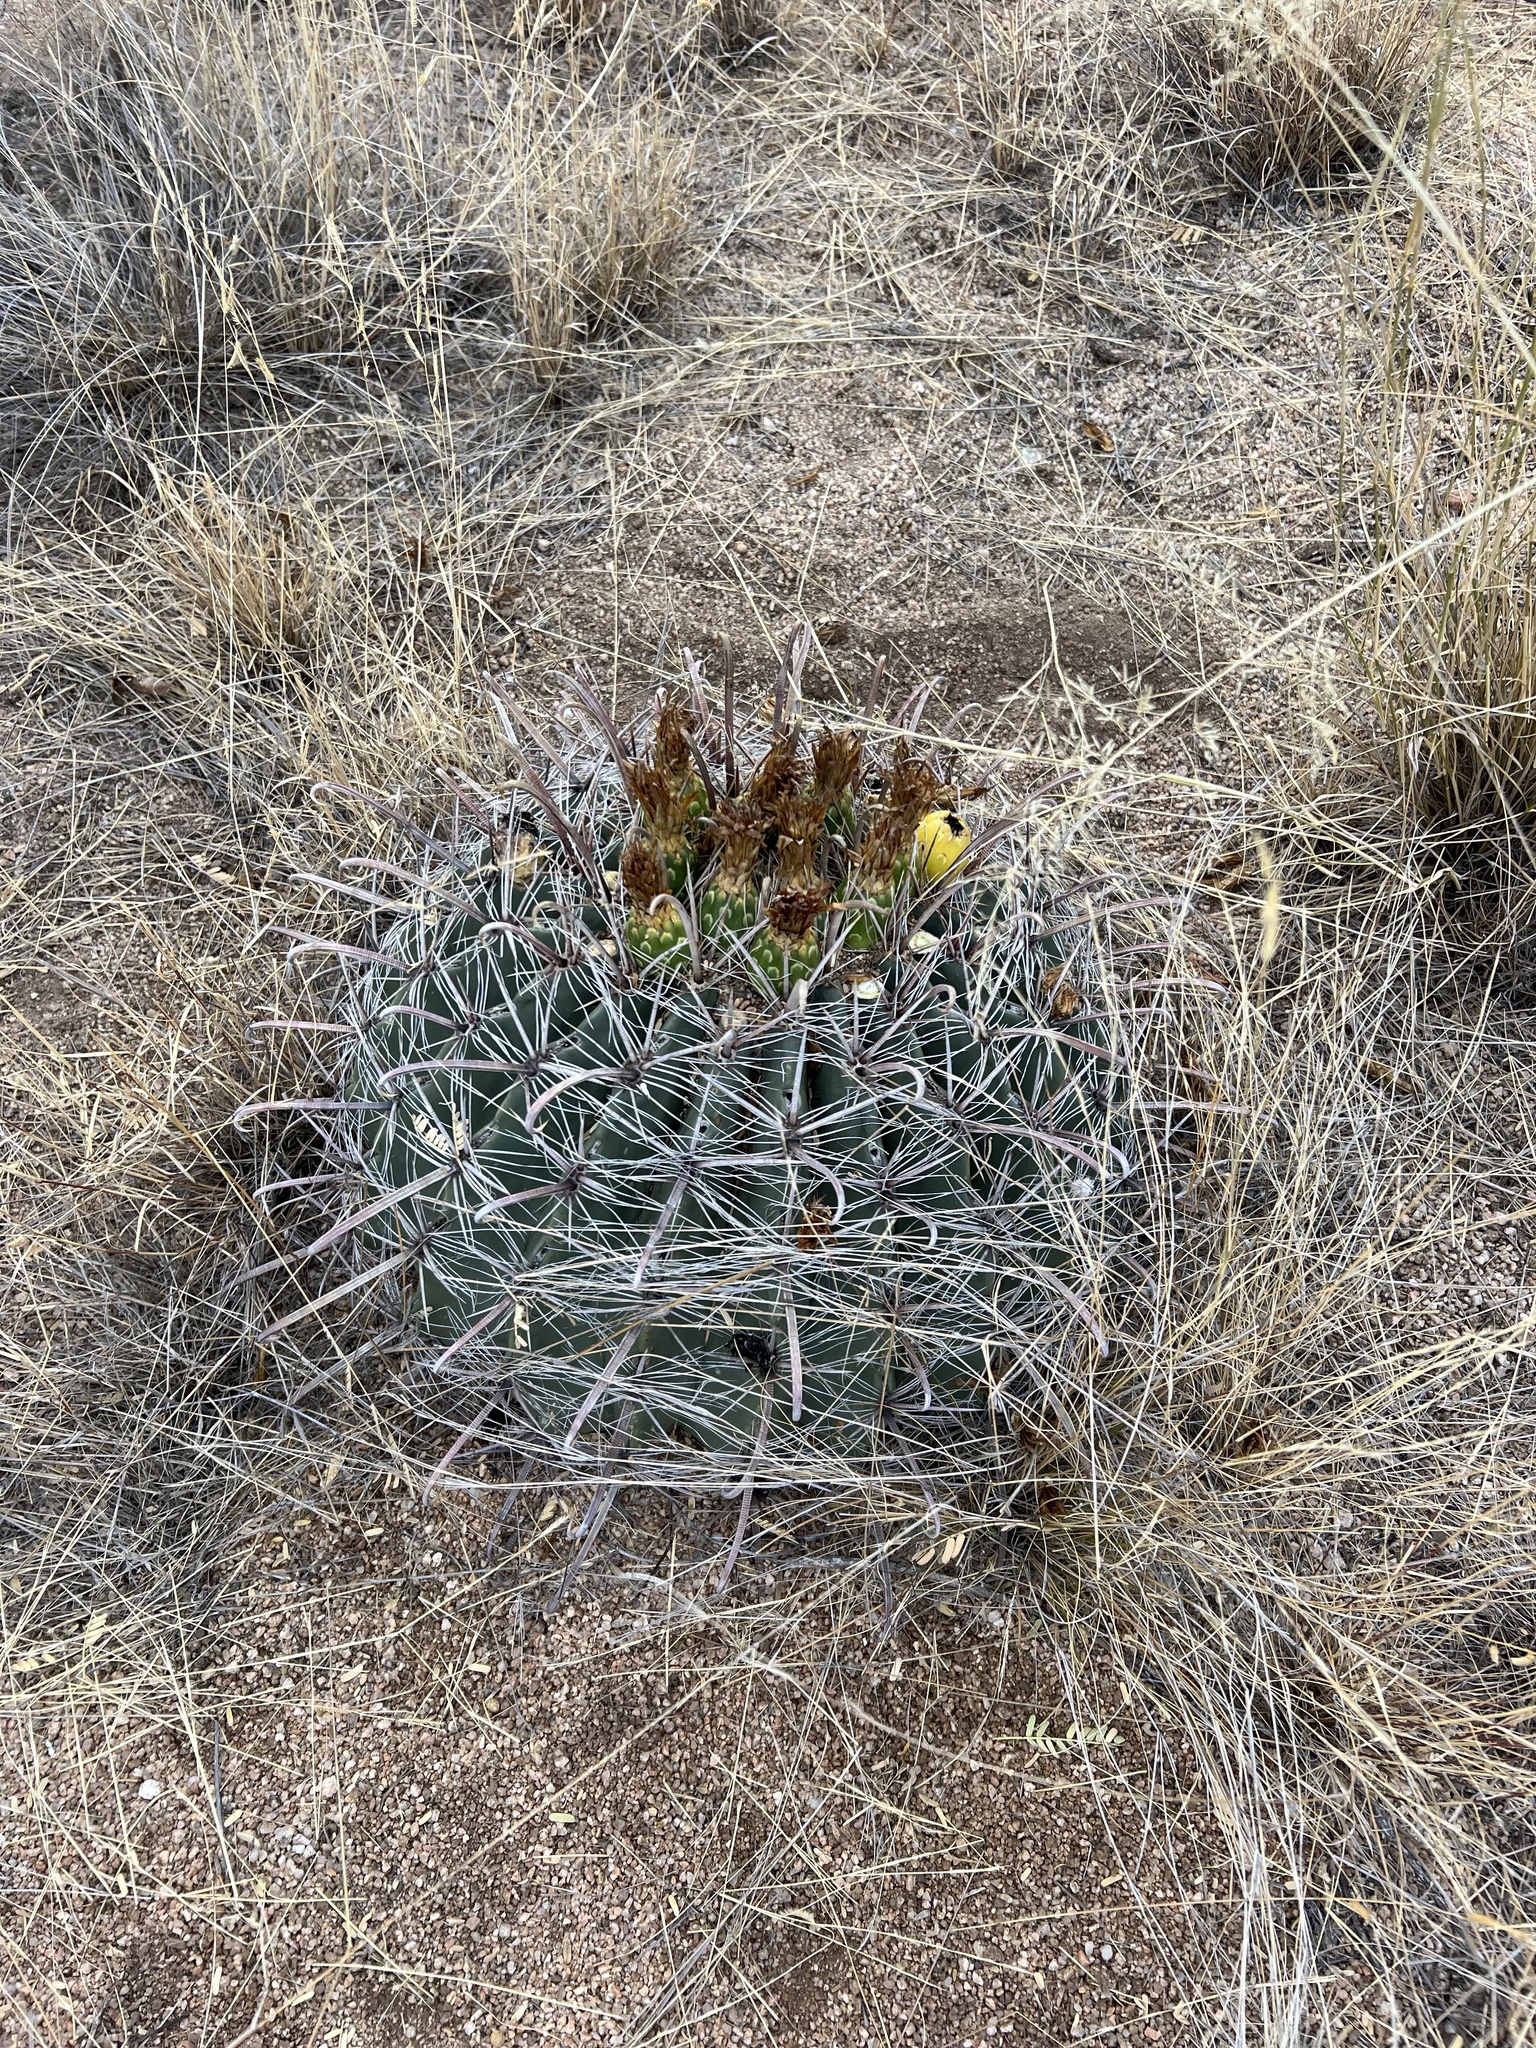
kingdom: Plantae
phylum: Tracheophyta
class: Magnoliopsida
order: Caryophyllales
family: Cactaceae
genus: Ferocactus
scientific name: Ferocactus wislizeni
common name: Candy barrel cactus
